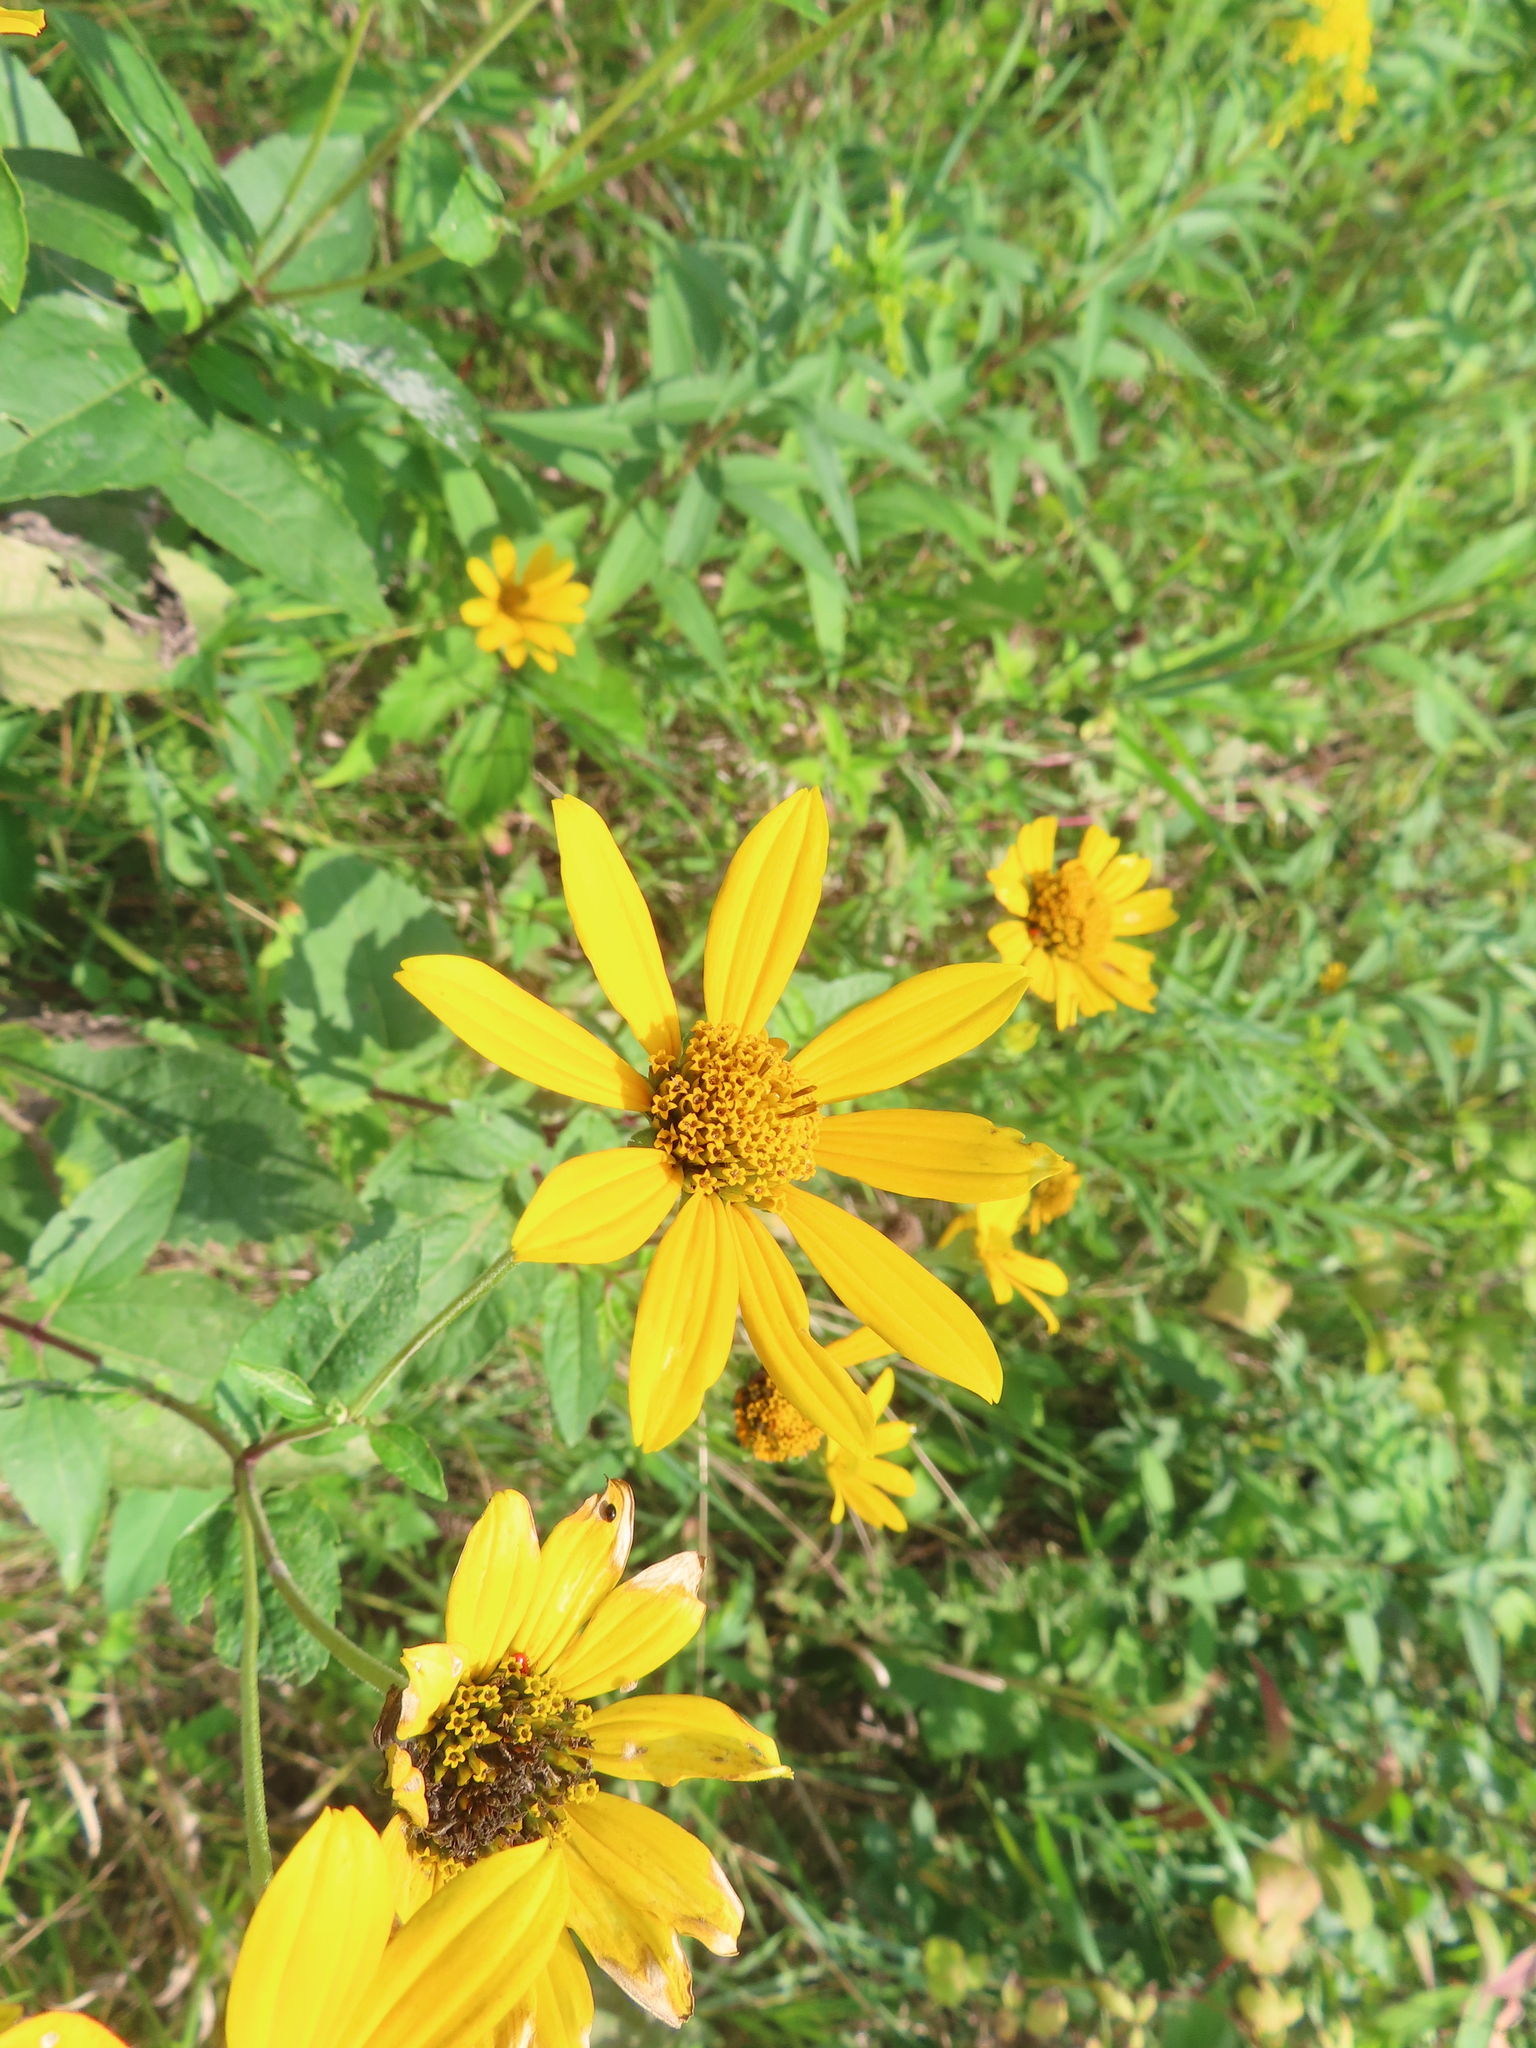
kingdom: Plantae
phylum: Tracheophyta
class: Magnoliopsida
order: Asterales
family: Asteraceae
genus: Heliopsis
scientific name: Heliopsis helianthoides
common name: False sunflower
